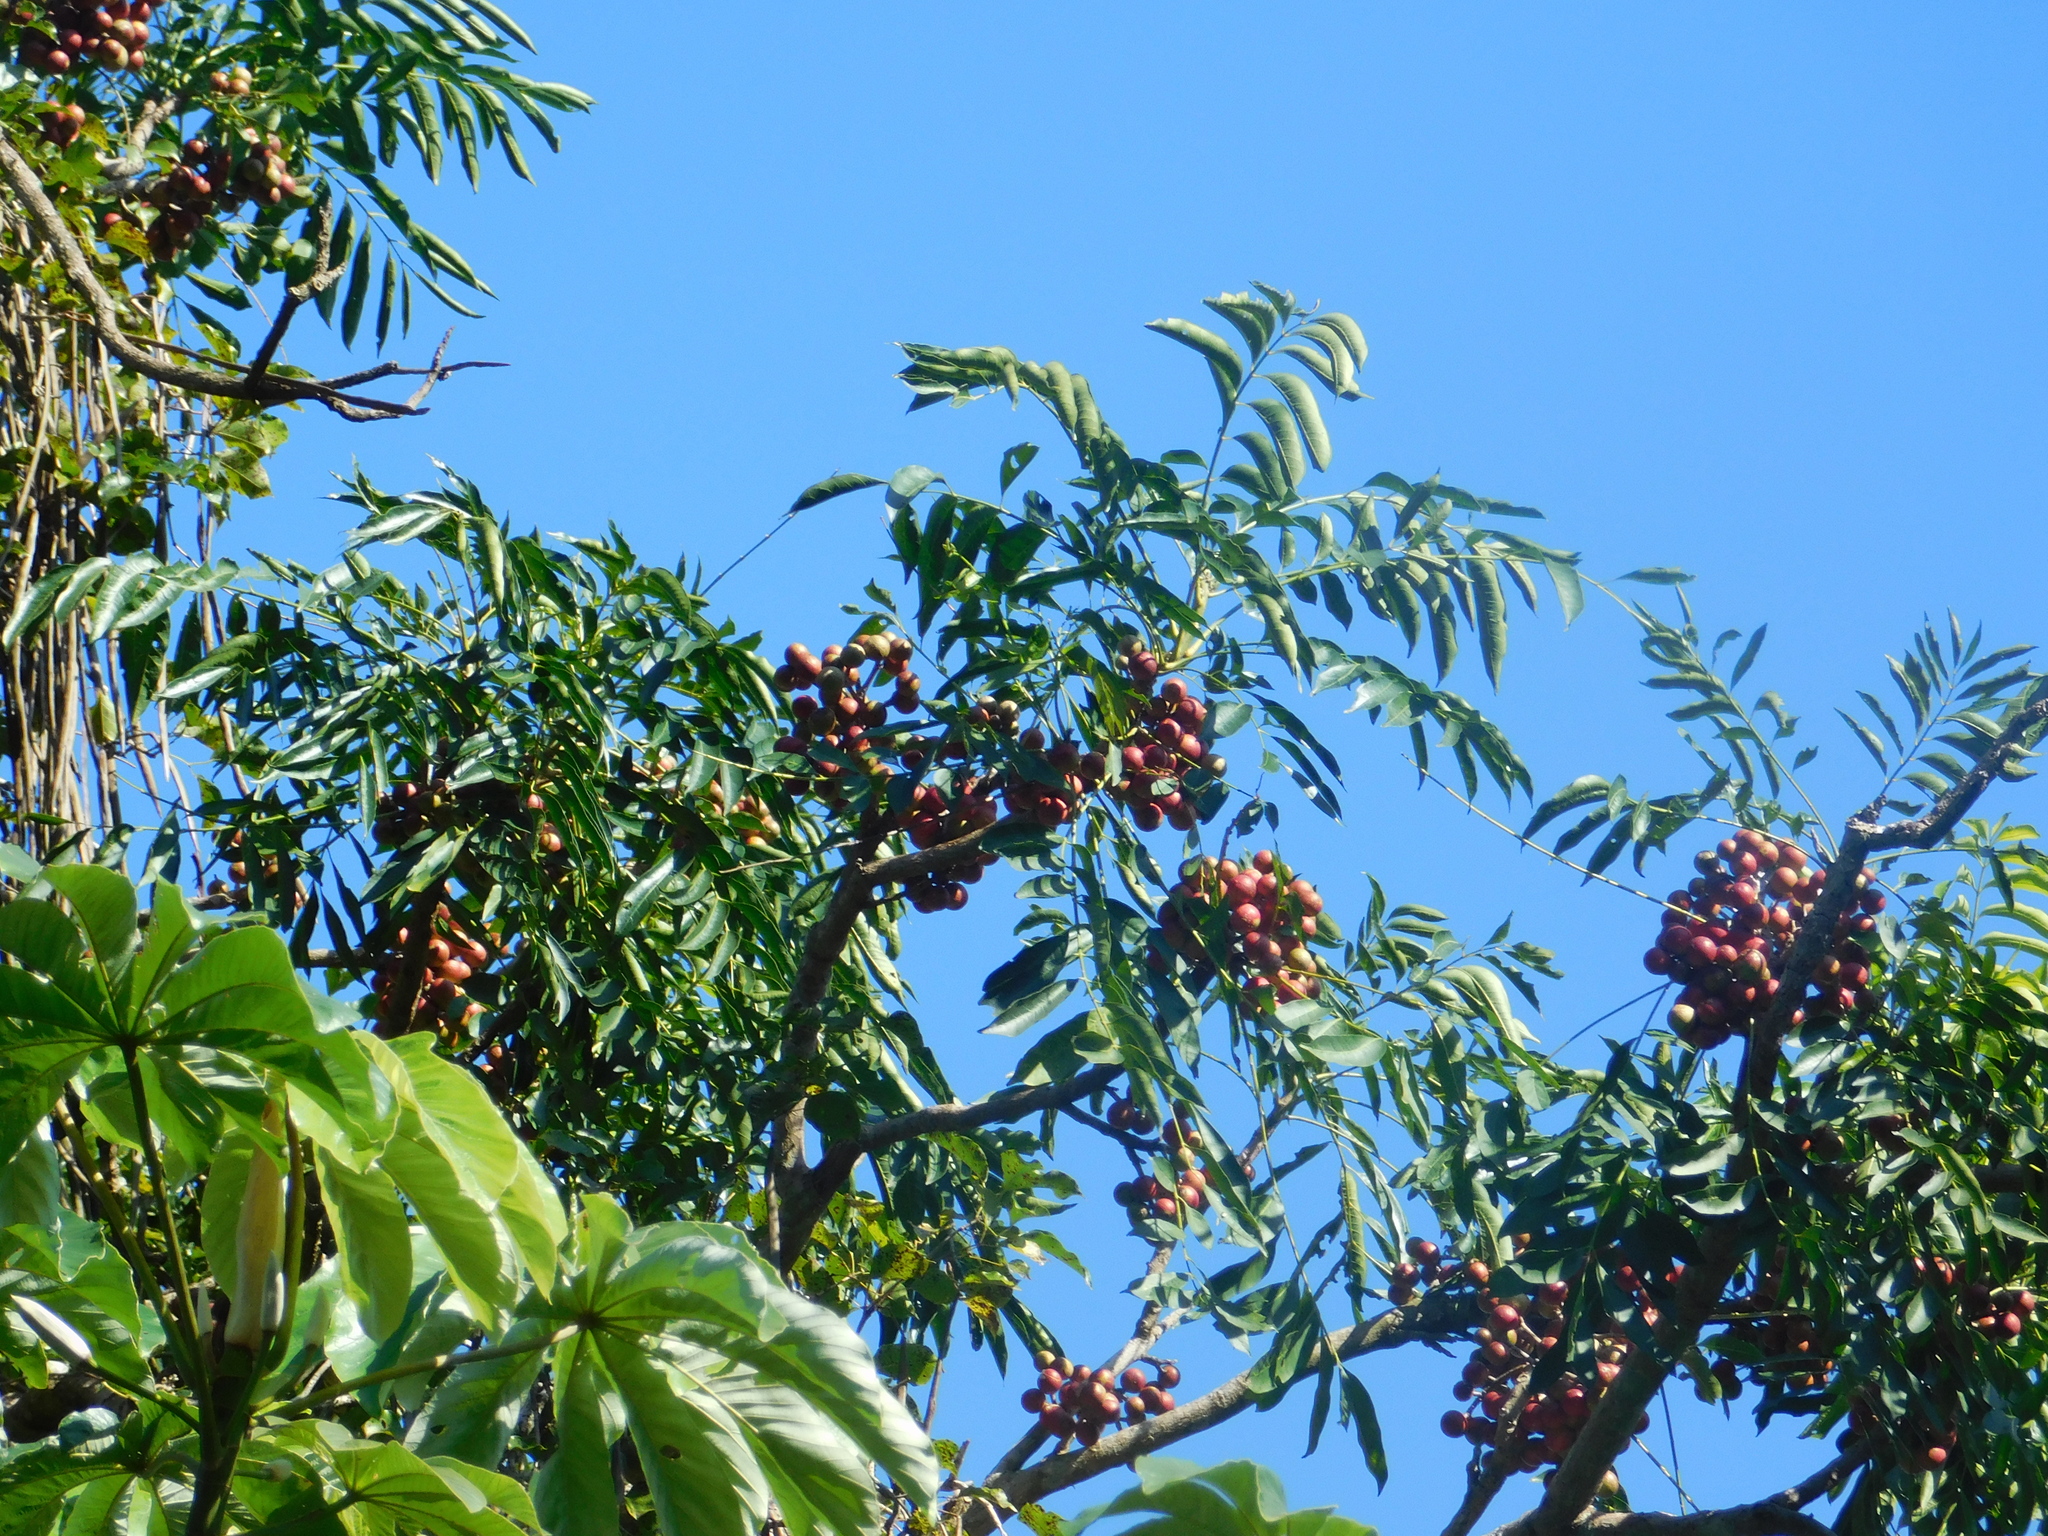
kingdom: Plantae
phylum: Tracheophyta
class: Magnoliopsida
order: Sapindales
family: Meliaceae
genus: Cabralea
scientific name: Cabralea canjerana
